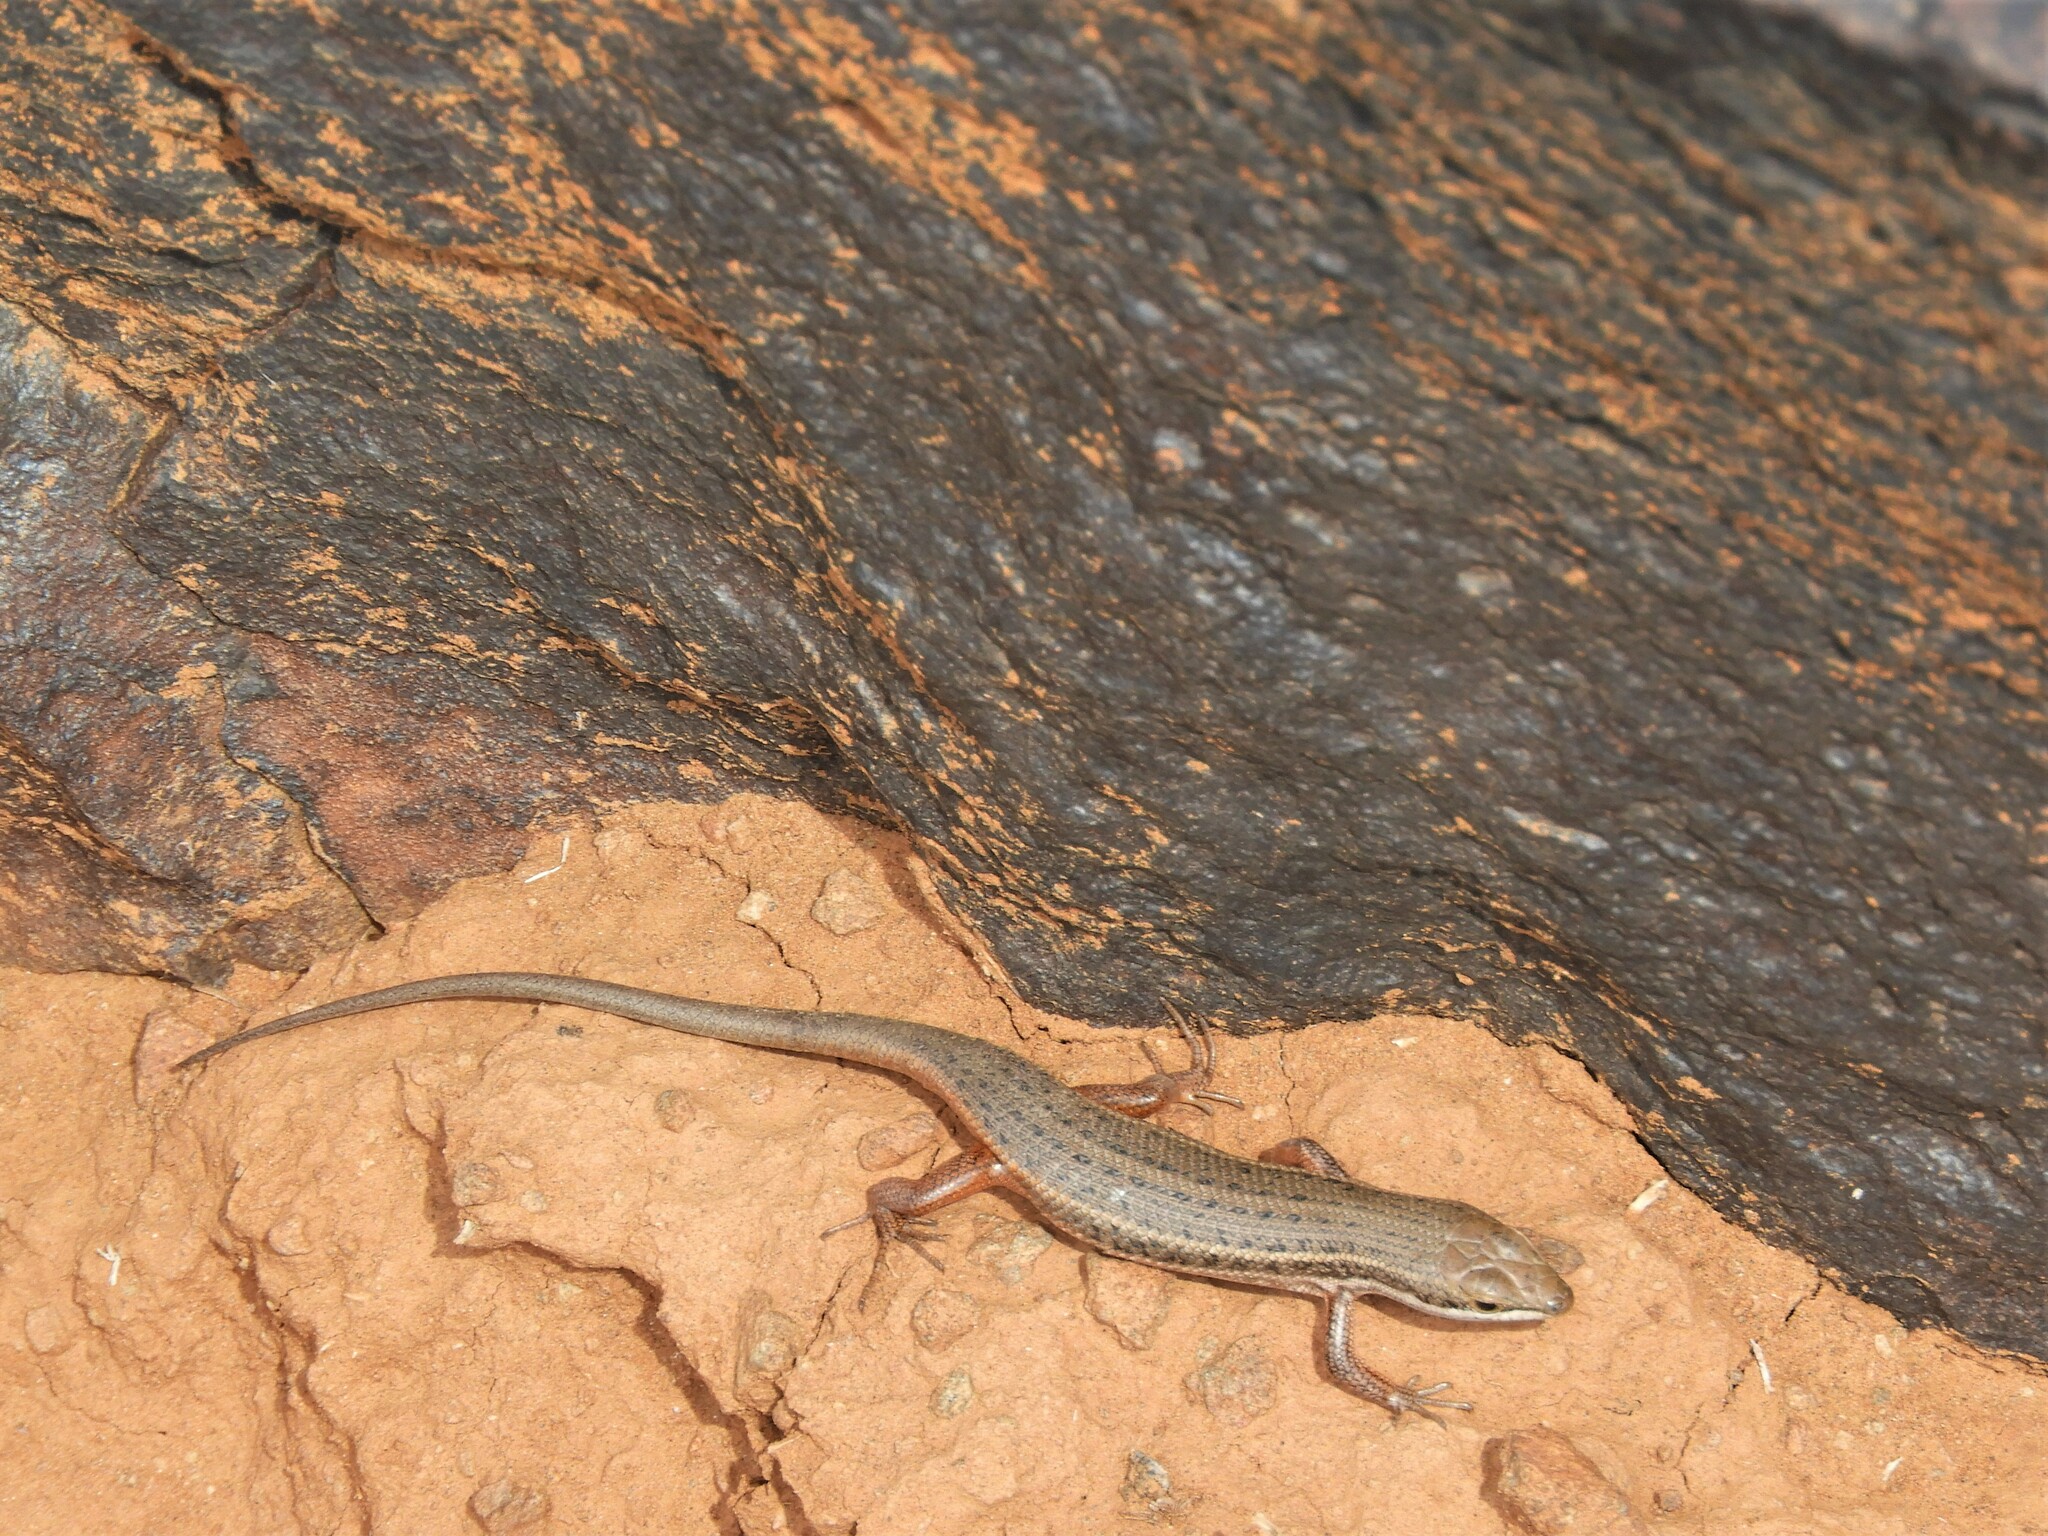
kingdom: Animalia
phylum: Chordata
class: Squamata
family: Scincidae
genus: Trachylepis
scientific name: Trachylepis variegata
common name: Variegated skink
